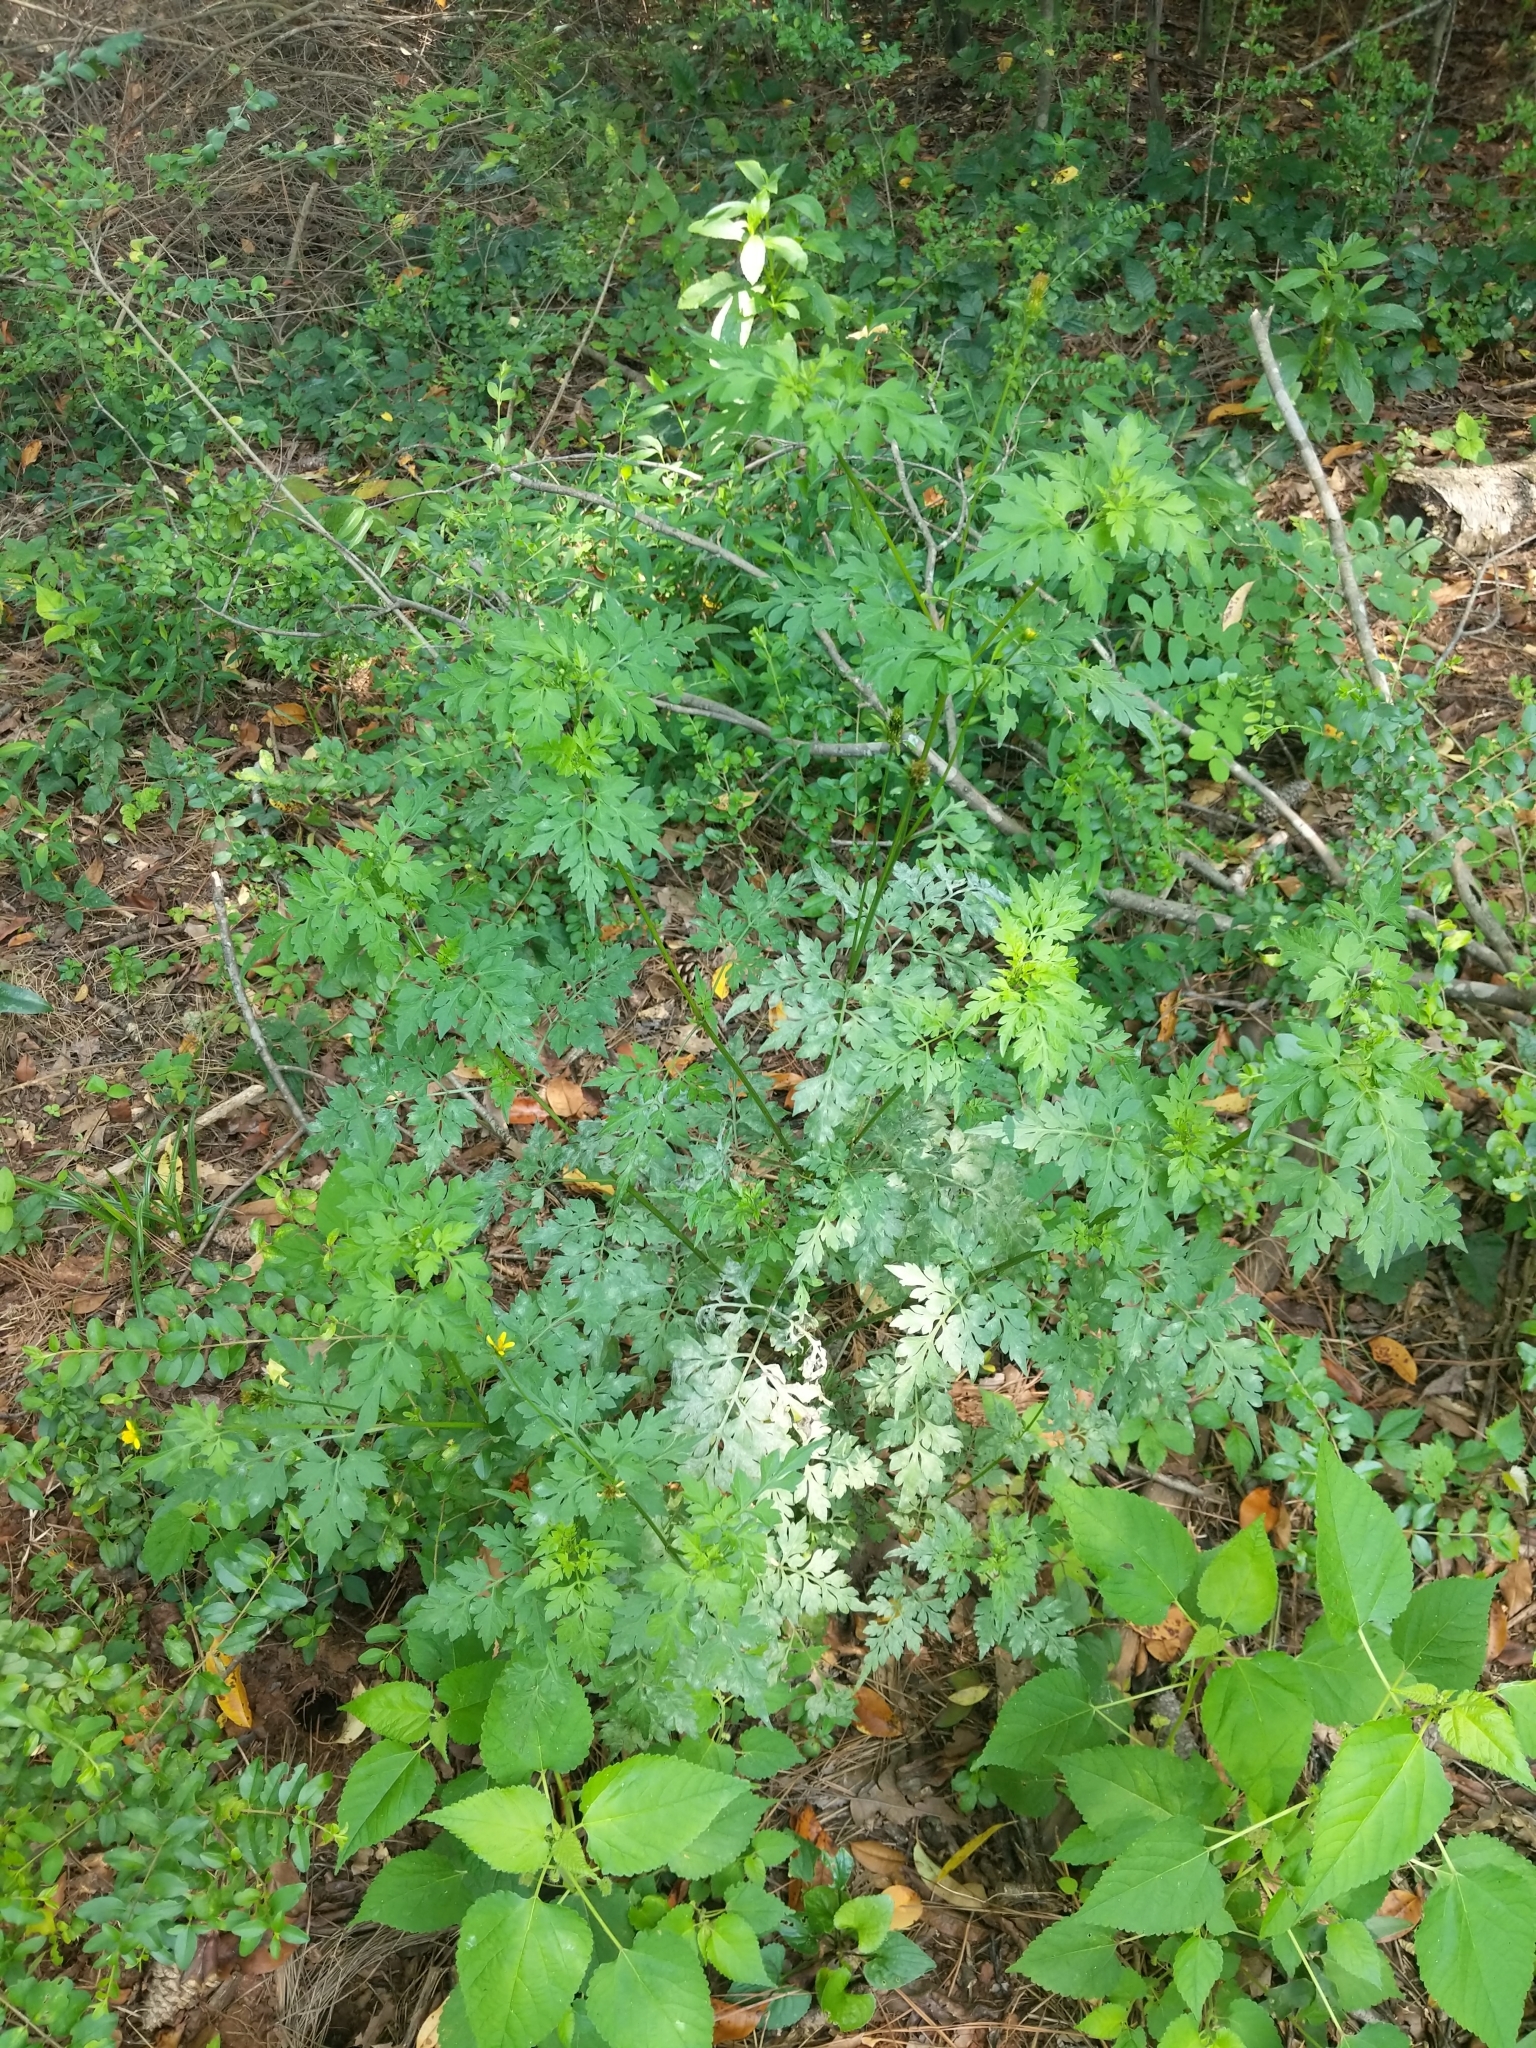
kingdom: Plantae
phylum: Tracheophyta
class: Magnoliopsida
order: Asterales
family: Asteraceae
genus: Bidens
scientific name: Bidens bipinnata
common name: Spanish-needles
